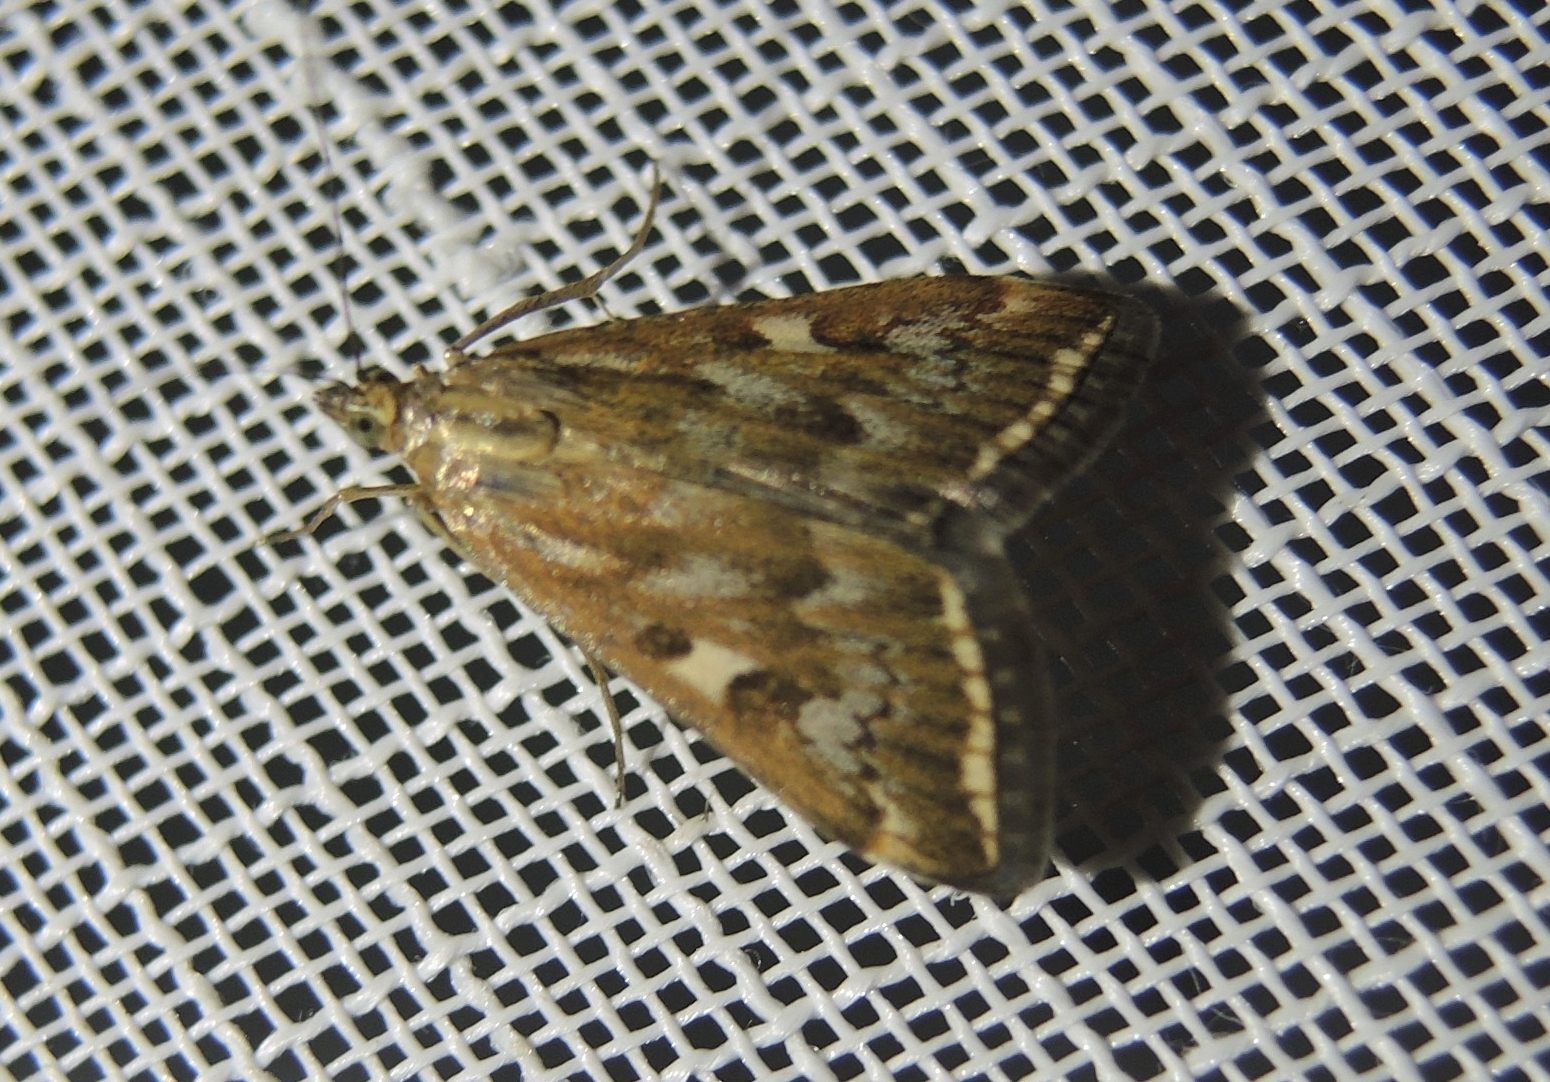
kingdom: Animalia
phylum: Arthropoda
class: Insecta
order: Lepidoptera
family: Crambidae
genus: Loxostege
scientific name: Loxostege sticticalis
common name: Crambid moth
